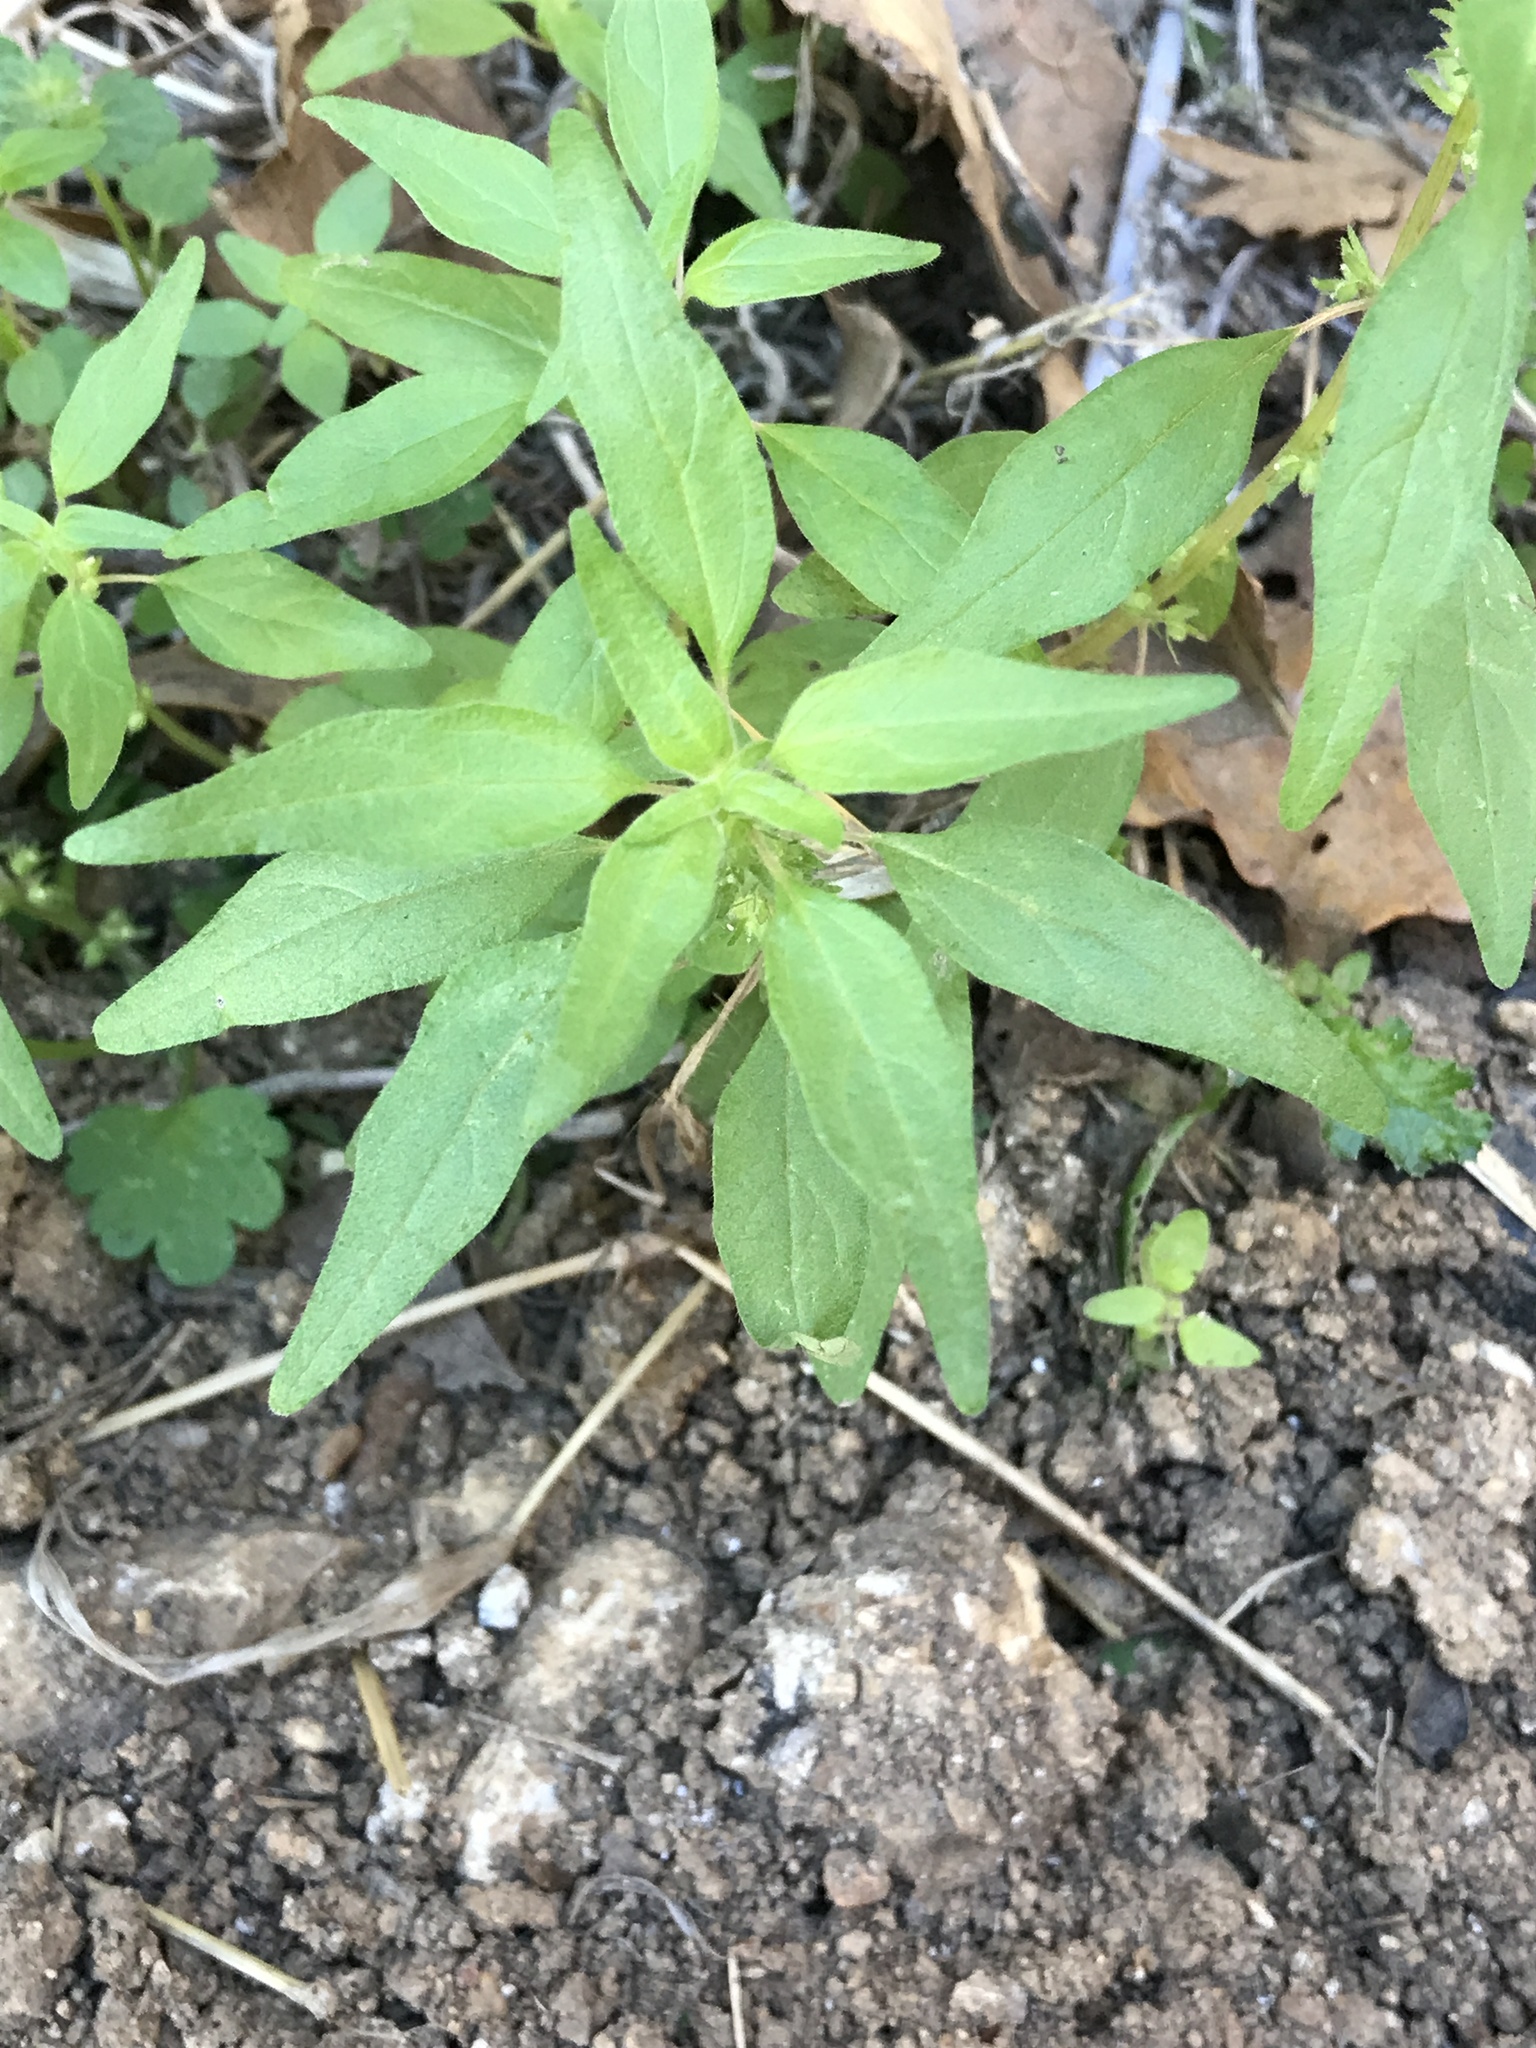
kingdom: Plantae
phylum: Tracheophyta
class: Magnoliopsida
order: Rosales
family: Urticaceae
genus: Parietaria
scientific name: Parietaria pensylvanica
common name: Pennsylvania pellitory
